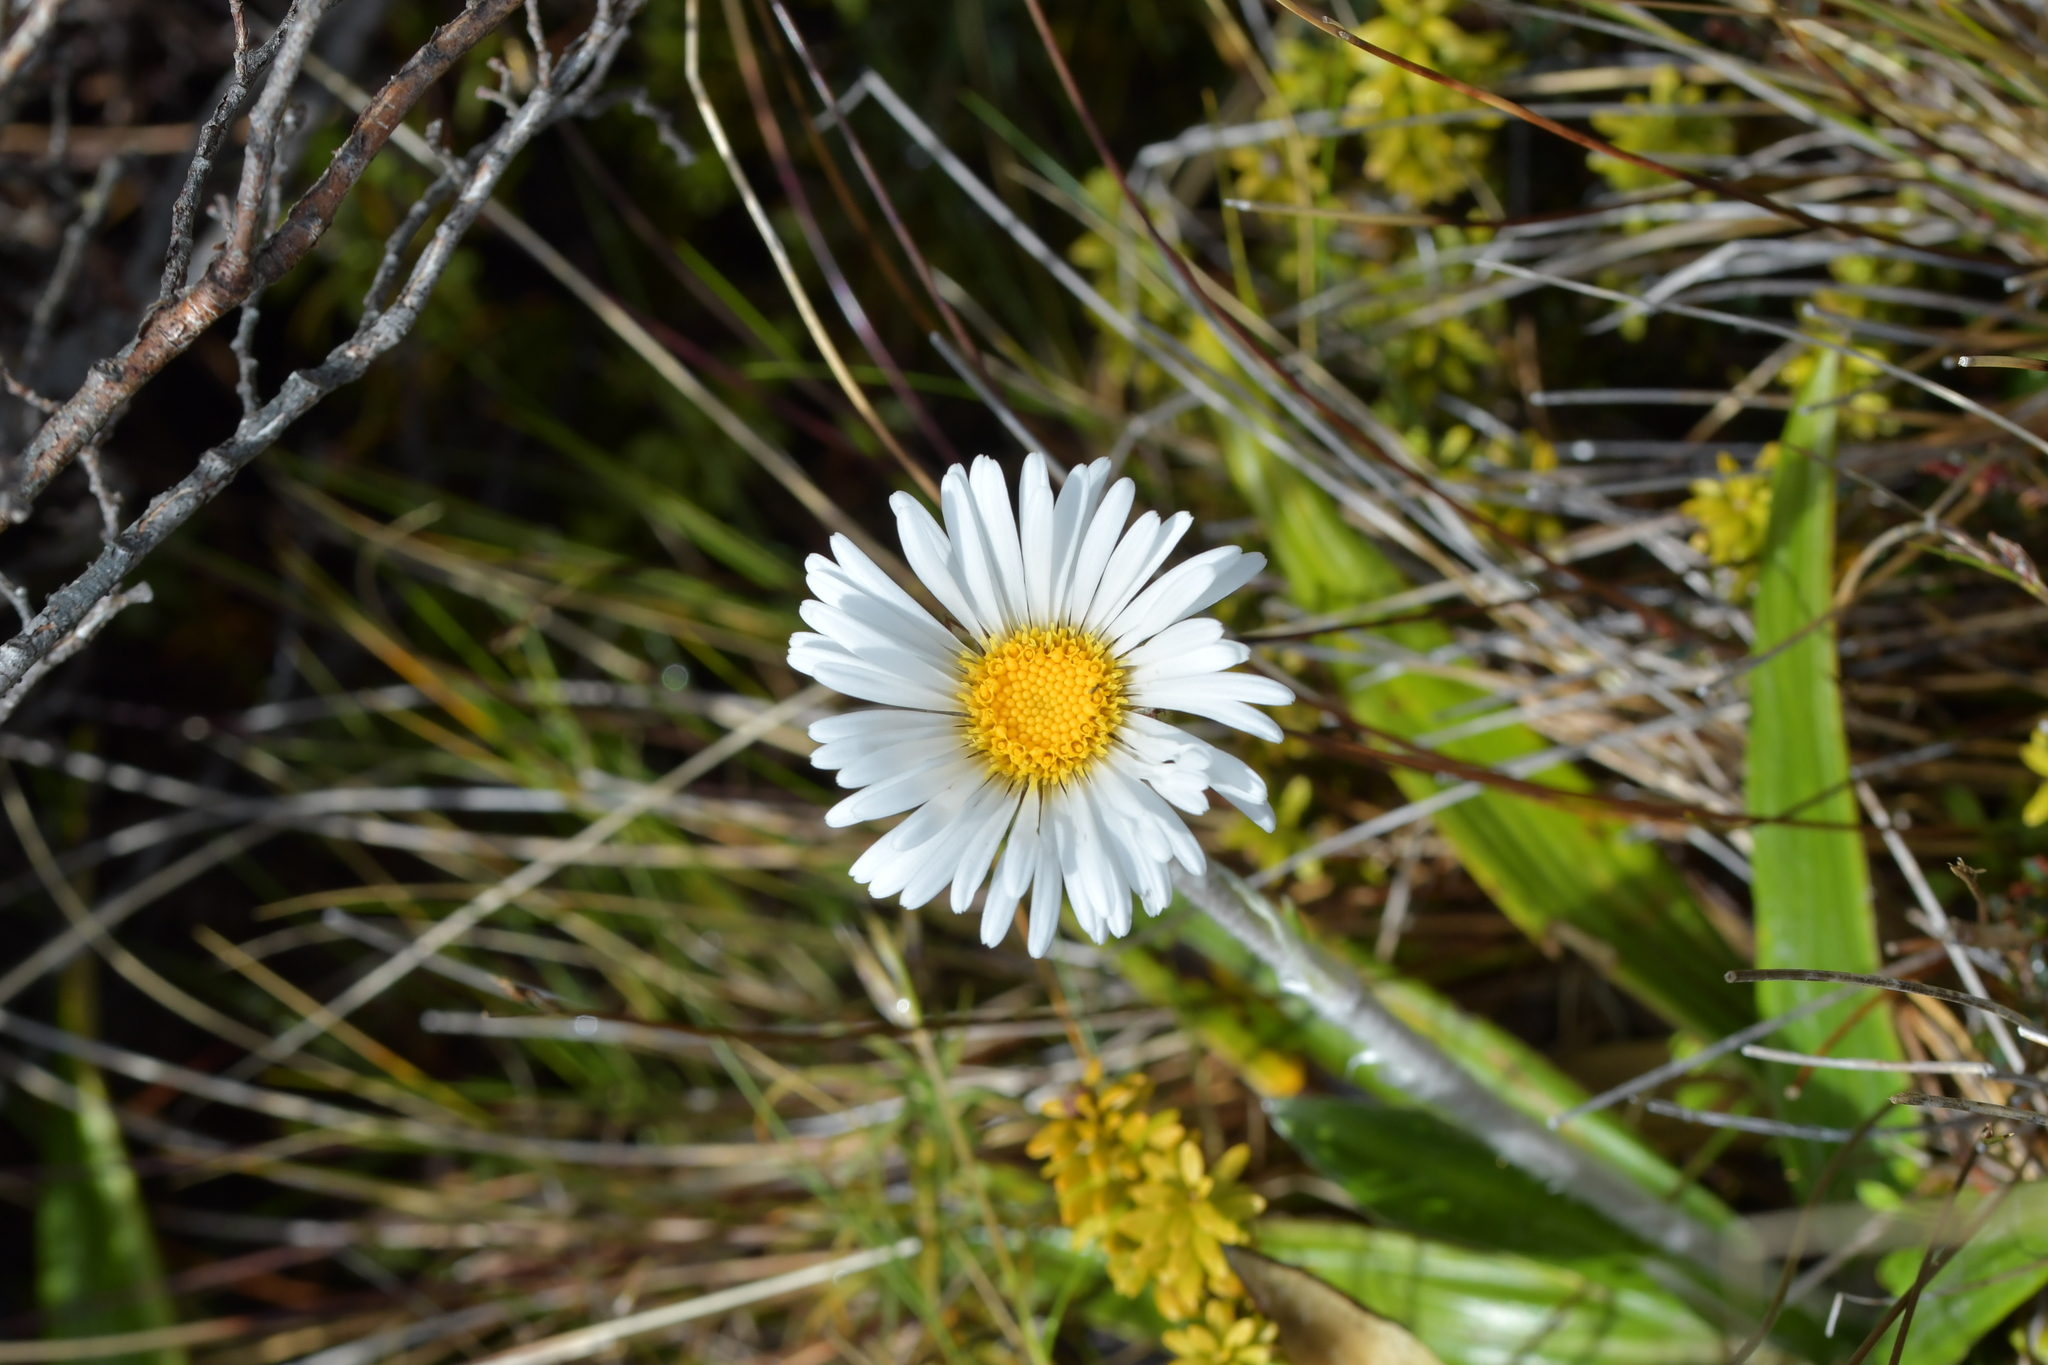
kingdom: Plantae
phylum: Tracheophyta
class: Magnoliopsida
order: Asterales
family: Asteraceae
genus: Celmisia
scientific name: Celmisia spectabilis
